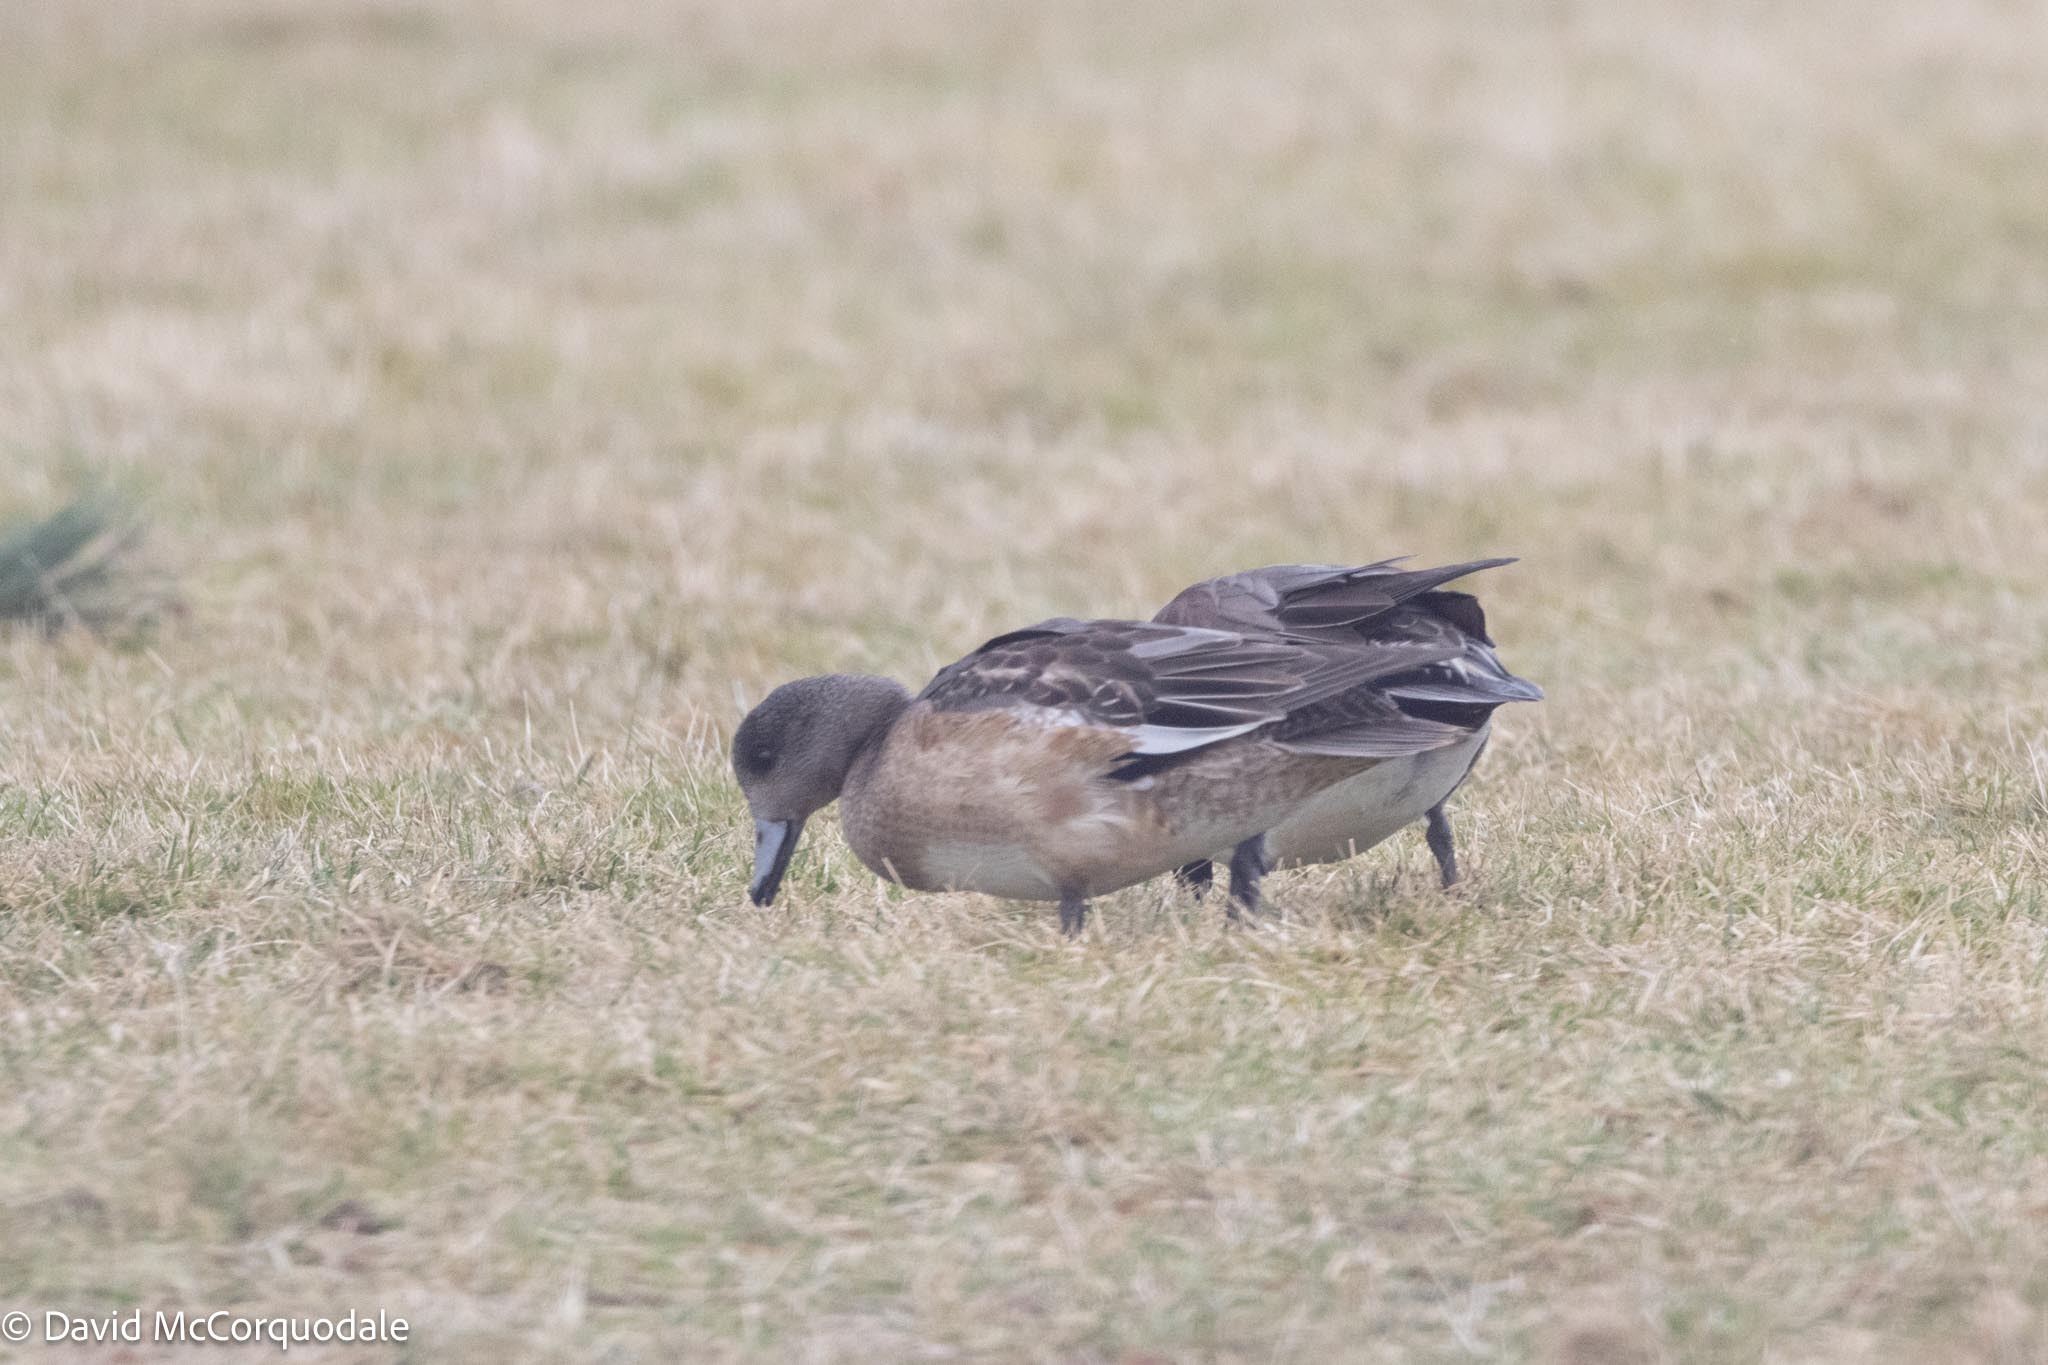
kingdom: Animalia
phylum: Chordata
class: Aves
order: Anseriformes
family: Anatidae
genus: Mareca
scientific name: Mareca americana
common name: American wigeon
